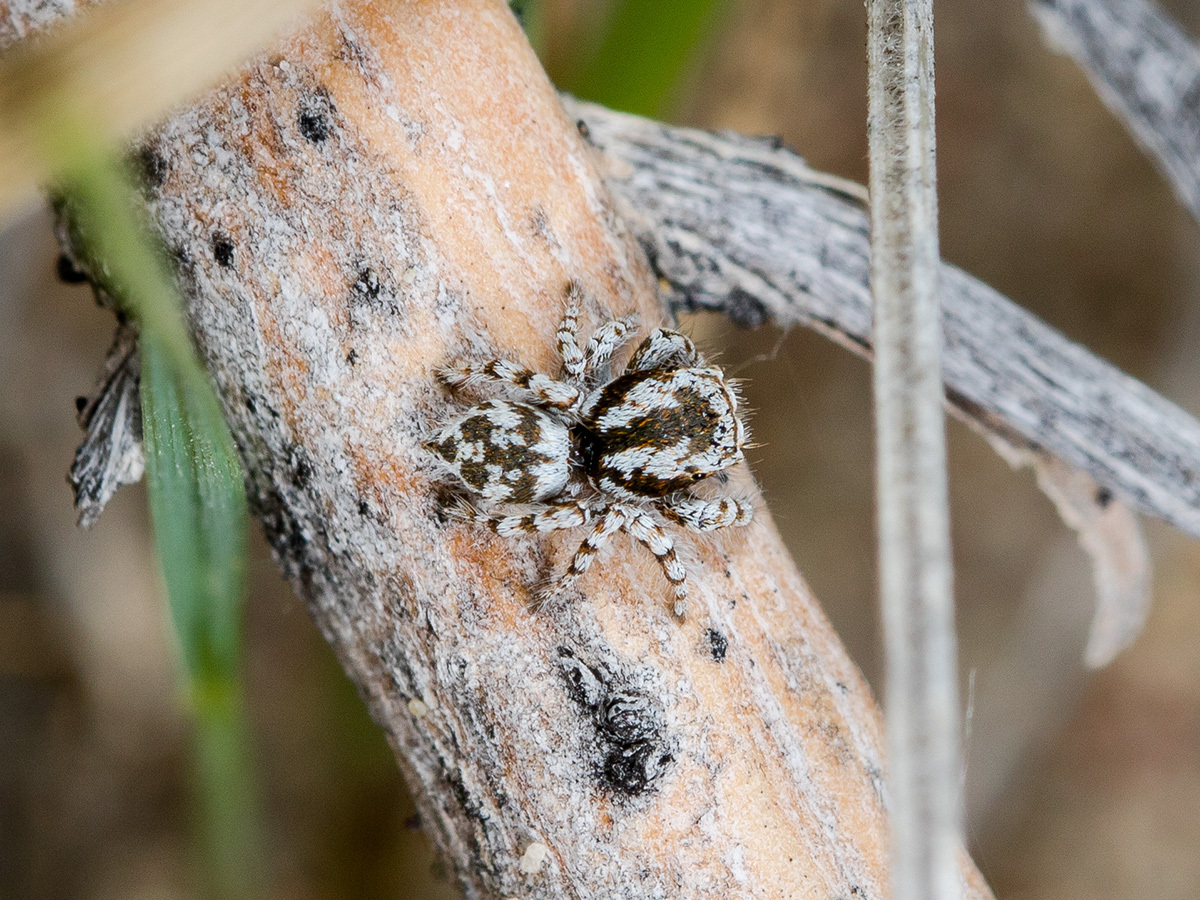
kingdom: Animalia
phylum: Arthropoda
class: Arachnida
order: Araneae
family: Salticidae
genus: Pseudomogrus
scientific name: Pseudomogrus dalaensis
